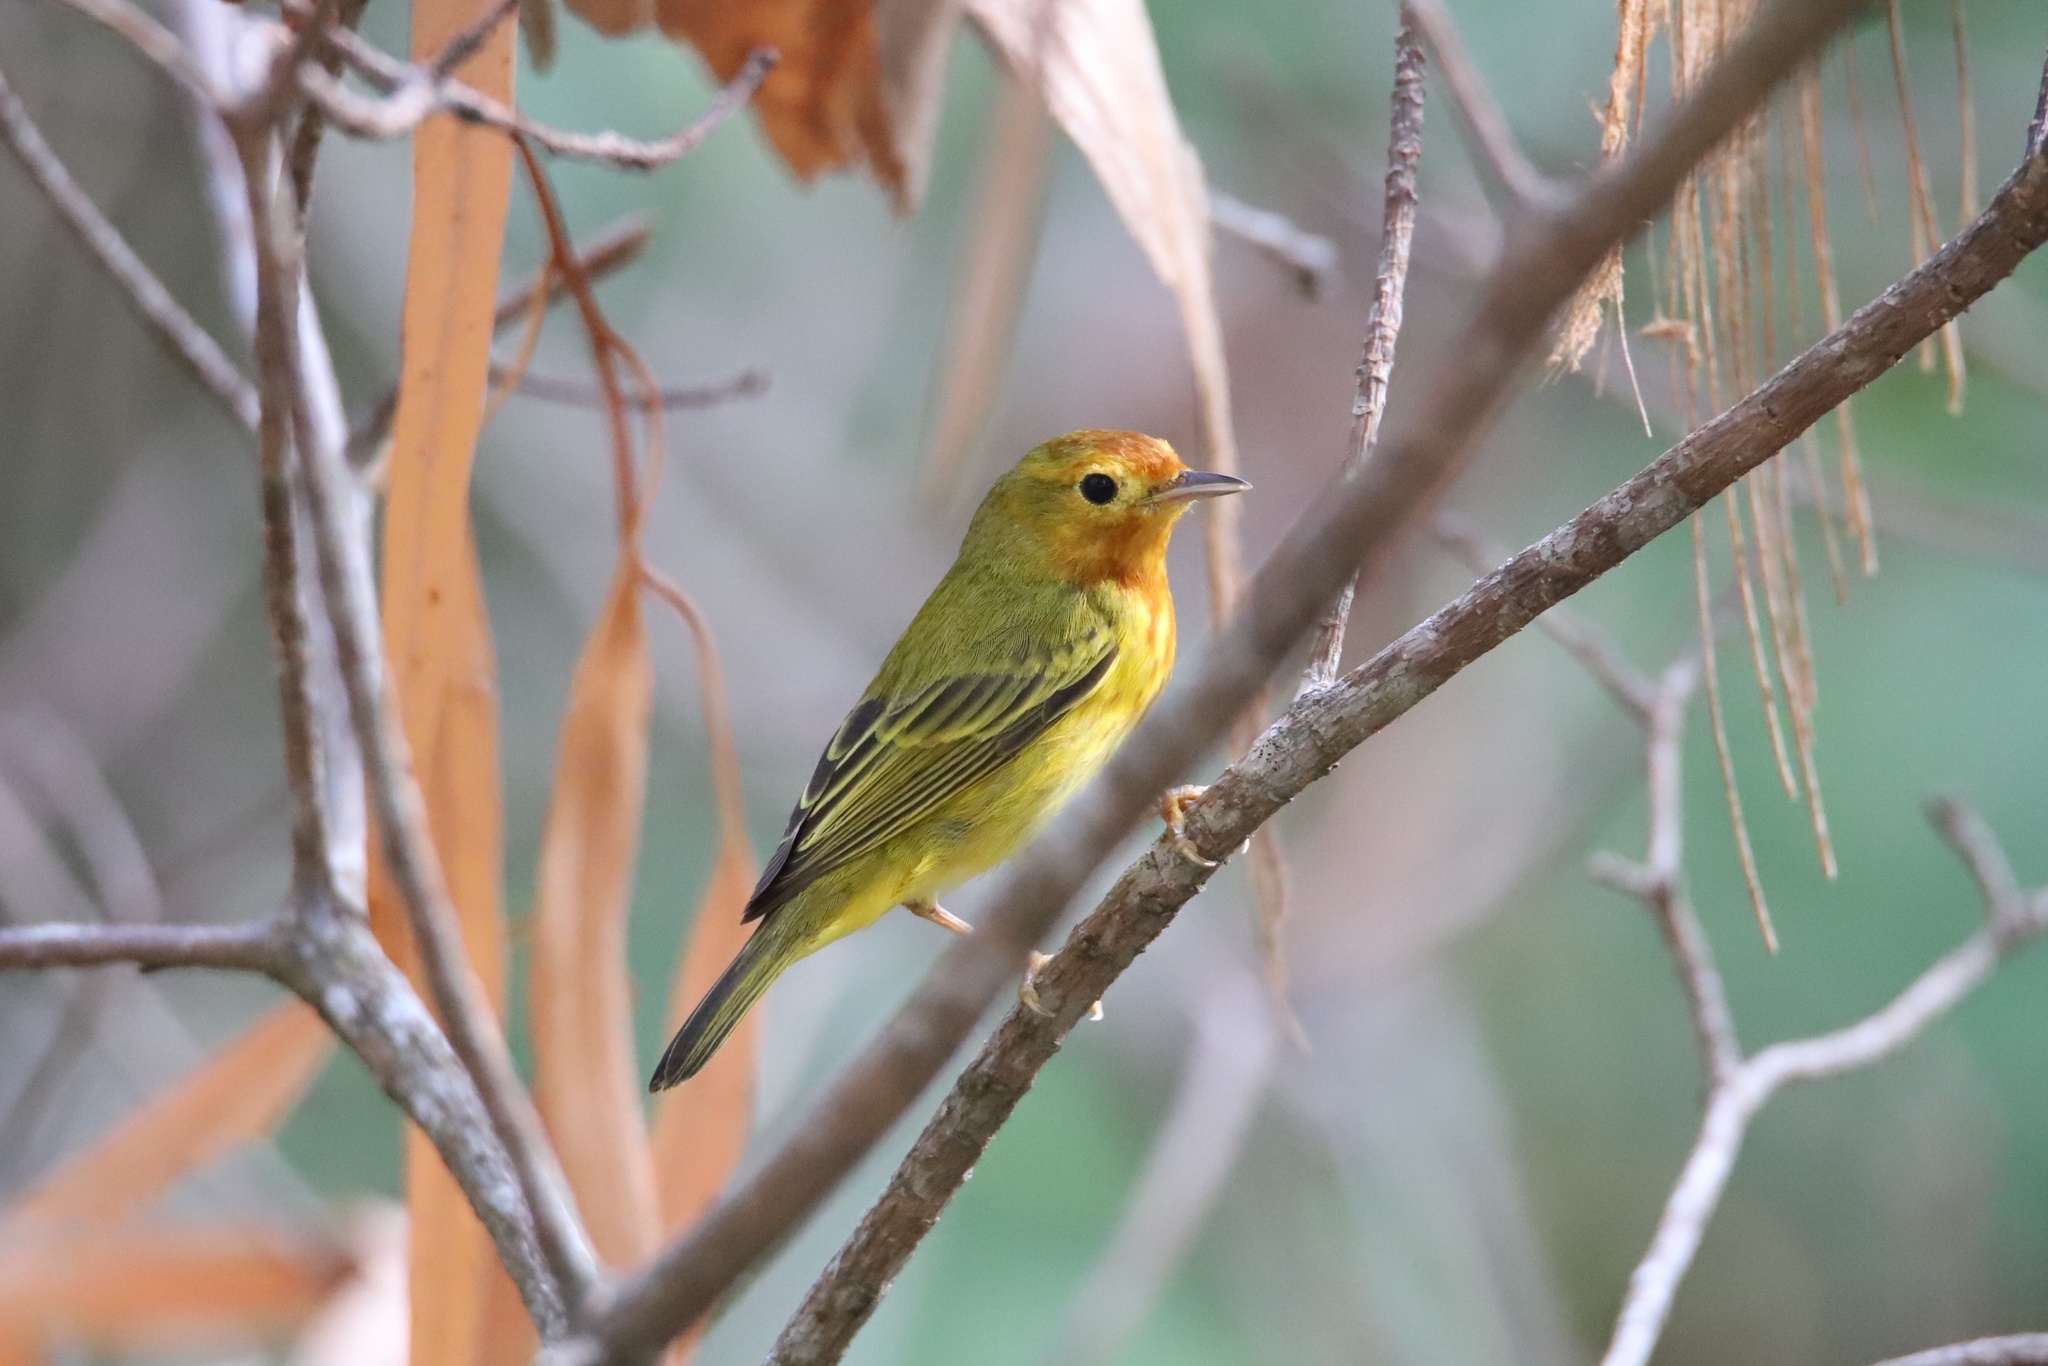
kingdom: Animalia
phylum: Chordata
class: Aves
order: Passeriformes
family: Parulidae
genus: Setophaga
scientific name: Setophaga petechia
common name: Yellow warbler
